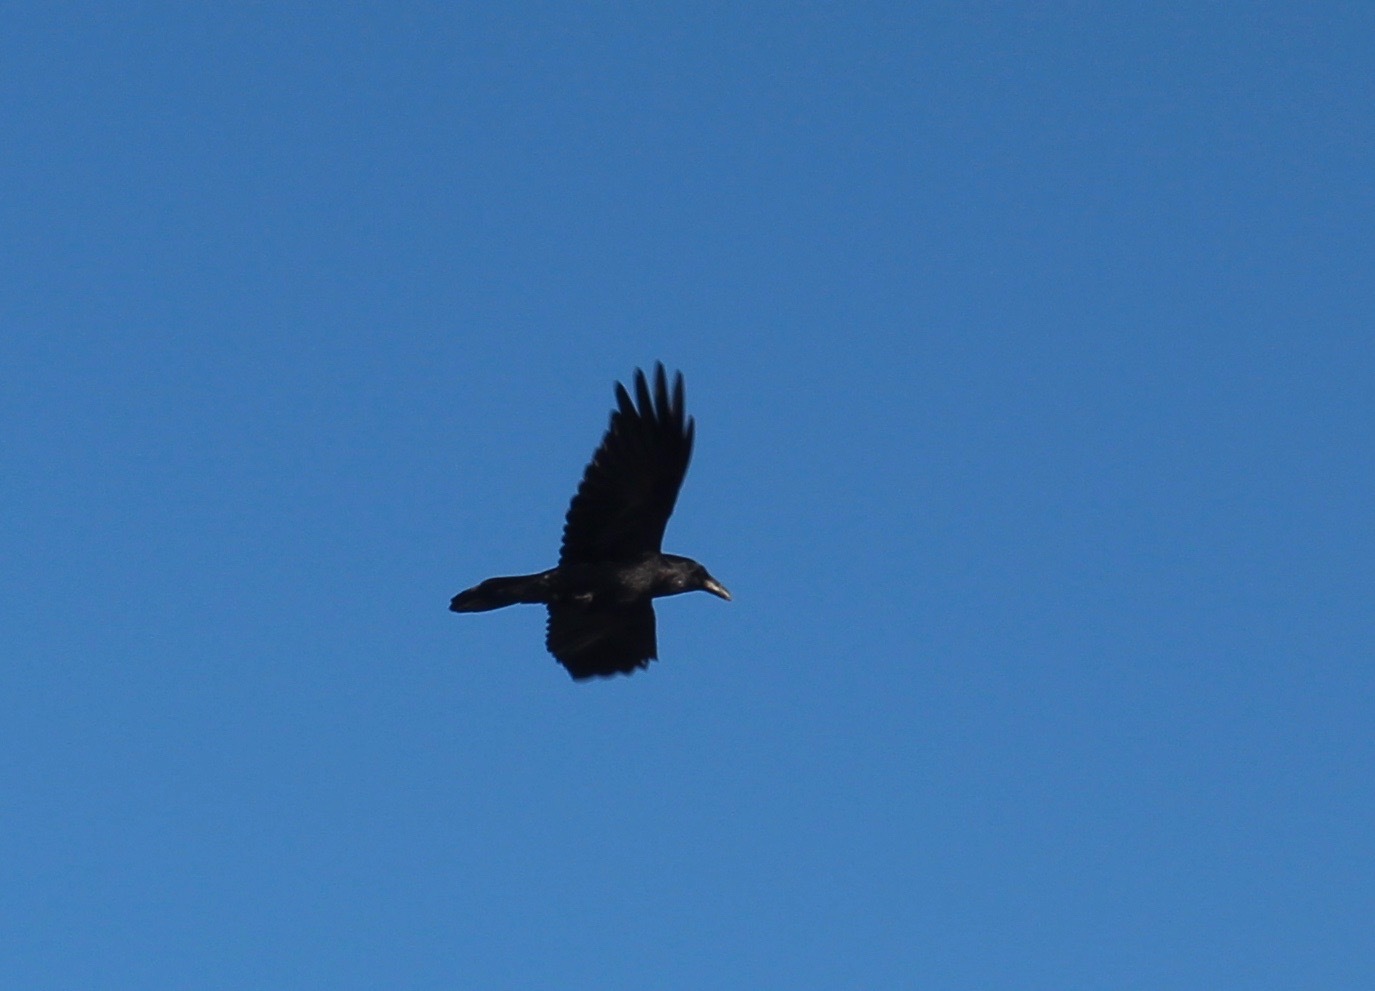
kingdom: Animalia
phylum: Chordata
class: Aves
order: Passeriformes
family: Corvidae
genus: Corvus
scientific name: Corvus corax
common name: Common raven
